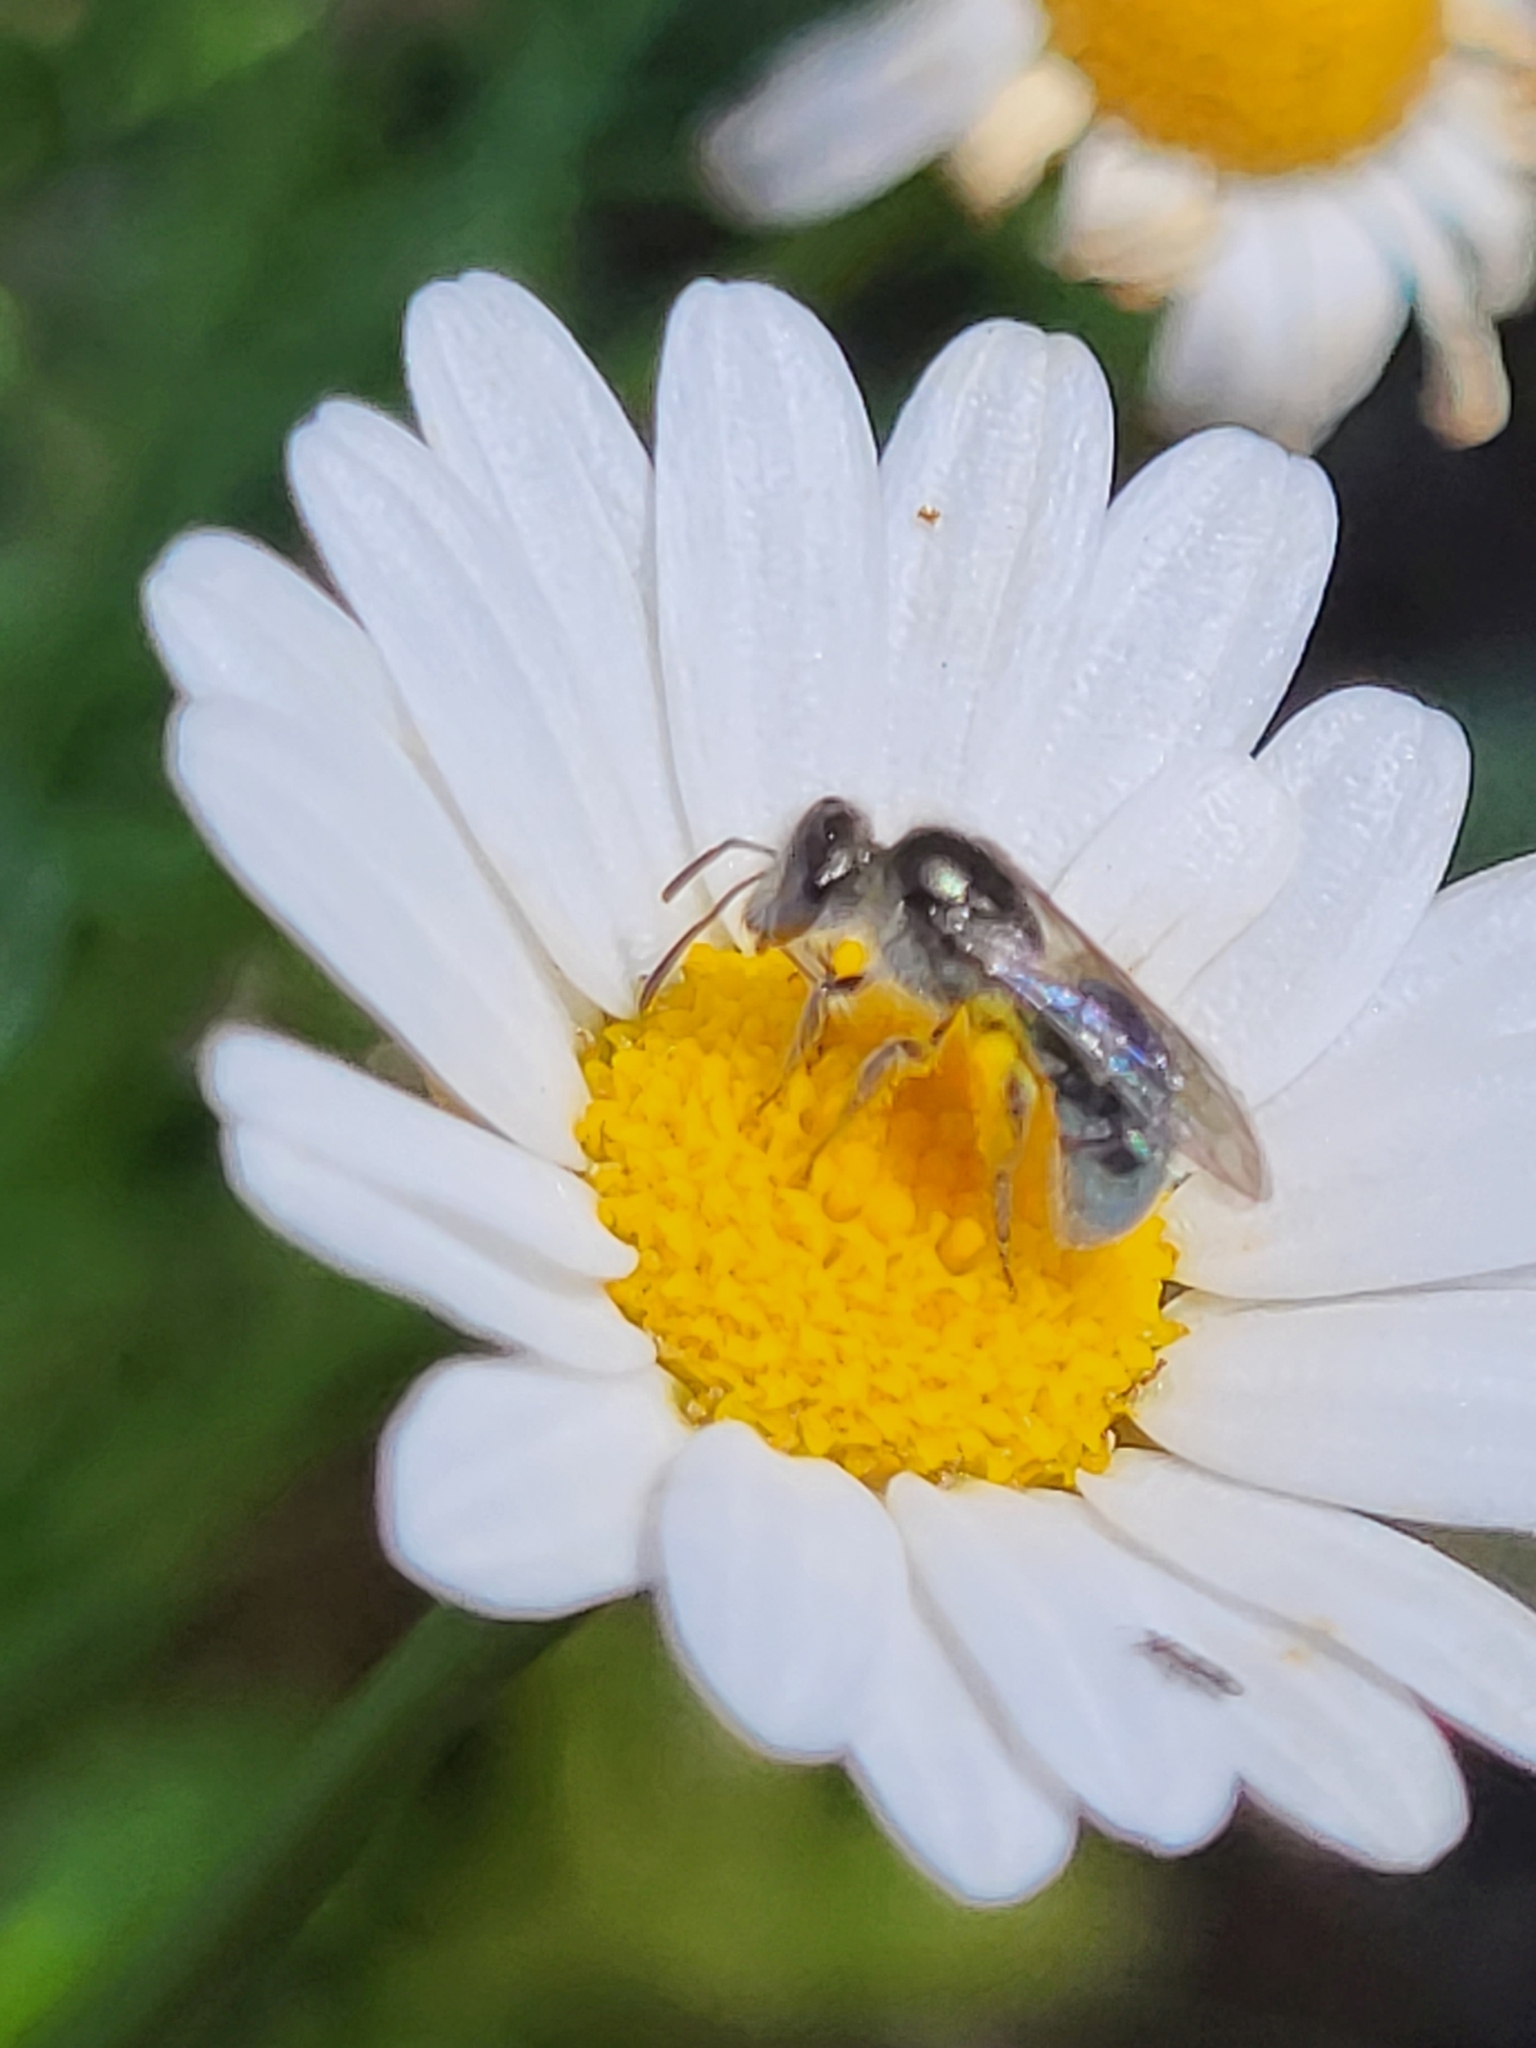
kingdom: Animalia
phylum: Arthropoda
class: Insecta
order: Hymenoptera
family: Halictidae
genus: Lasioglossum
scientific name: Lasioglossum viride
